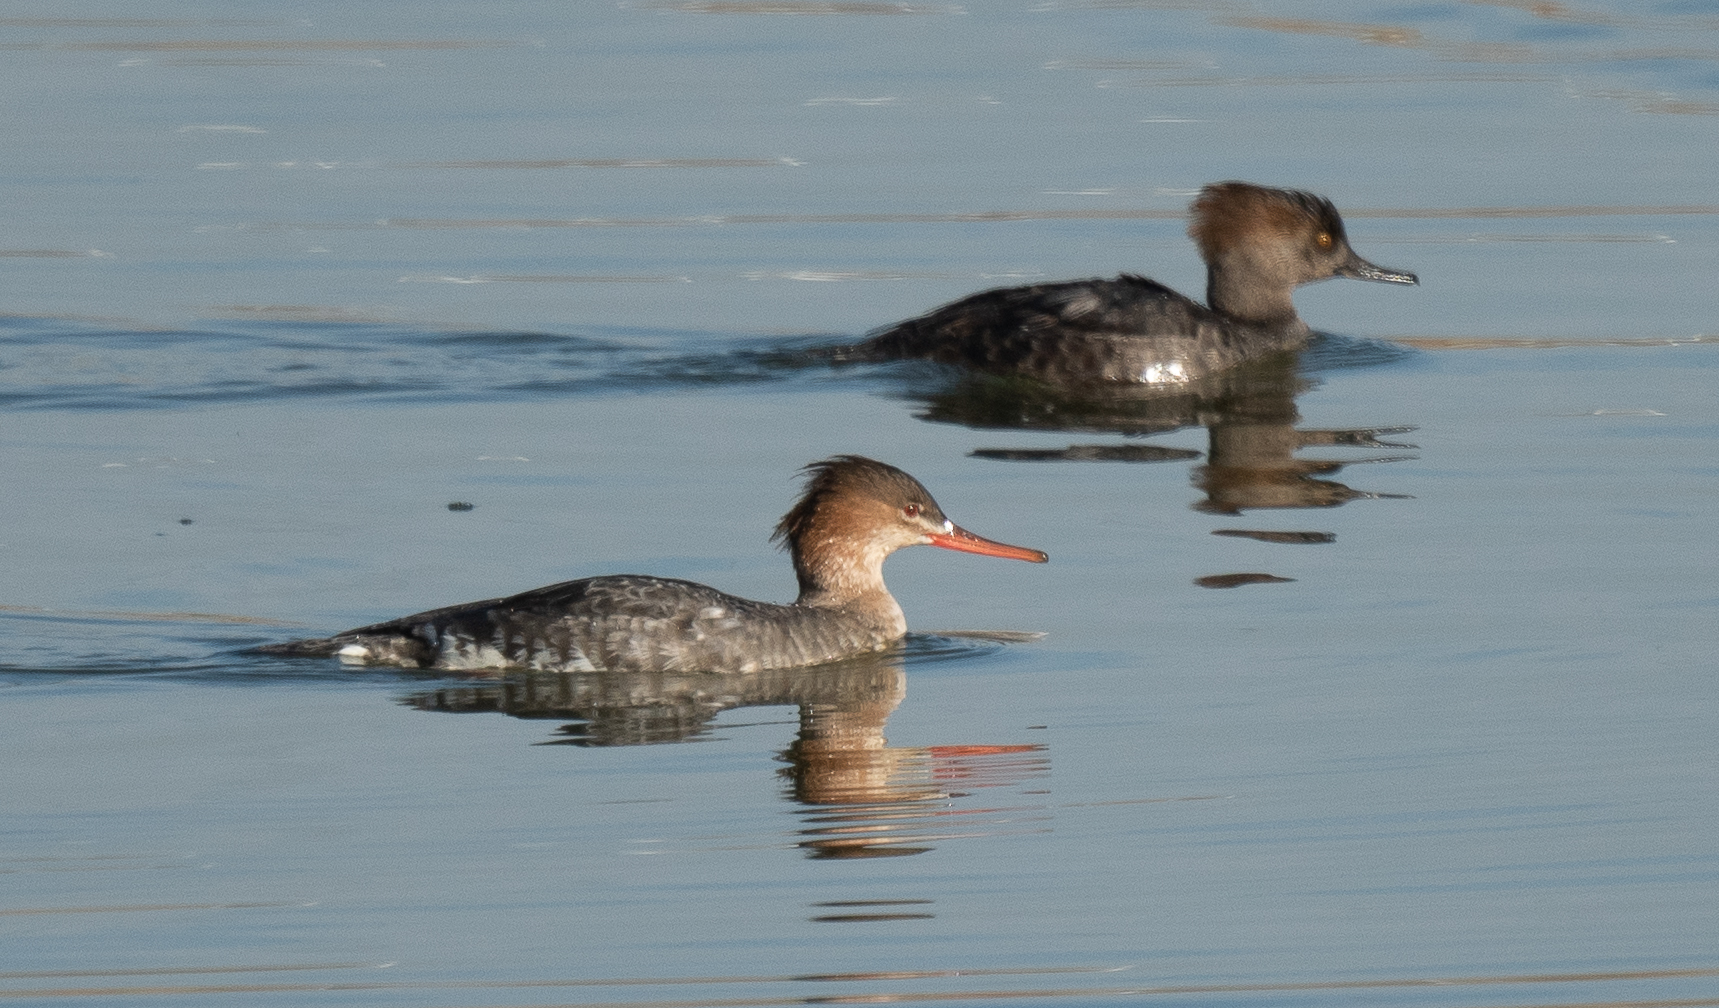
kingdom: Animalia
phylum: Chordata
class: Aves
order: Anseriformes
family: Anatidae
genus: Mergus
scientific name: Mergus serrator
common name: Red-breasted merganser
